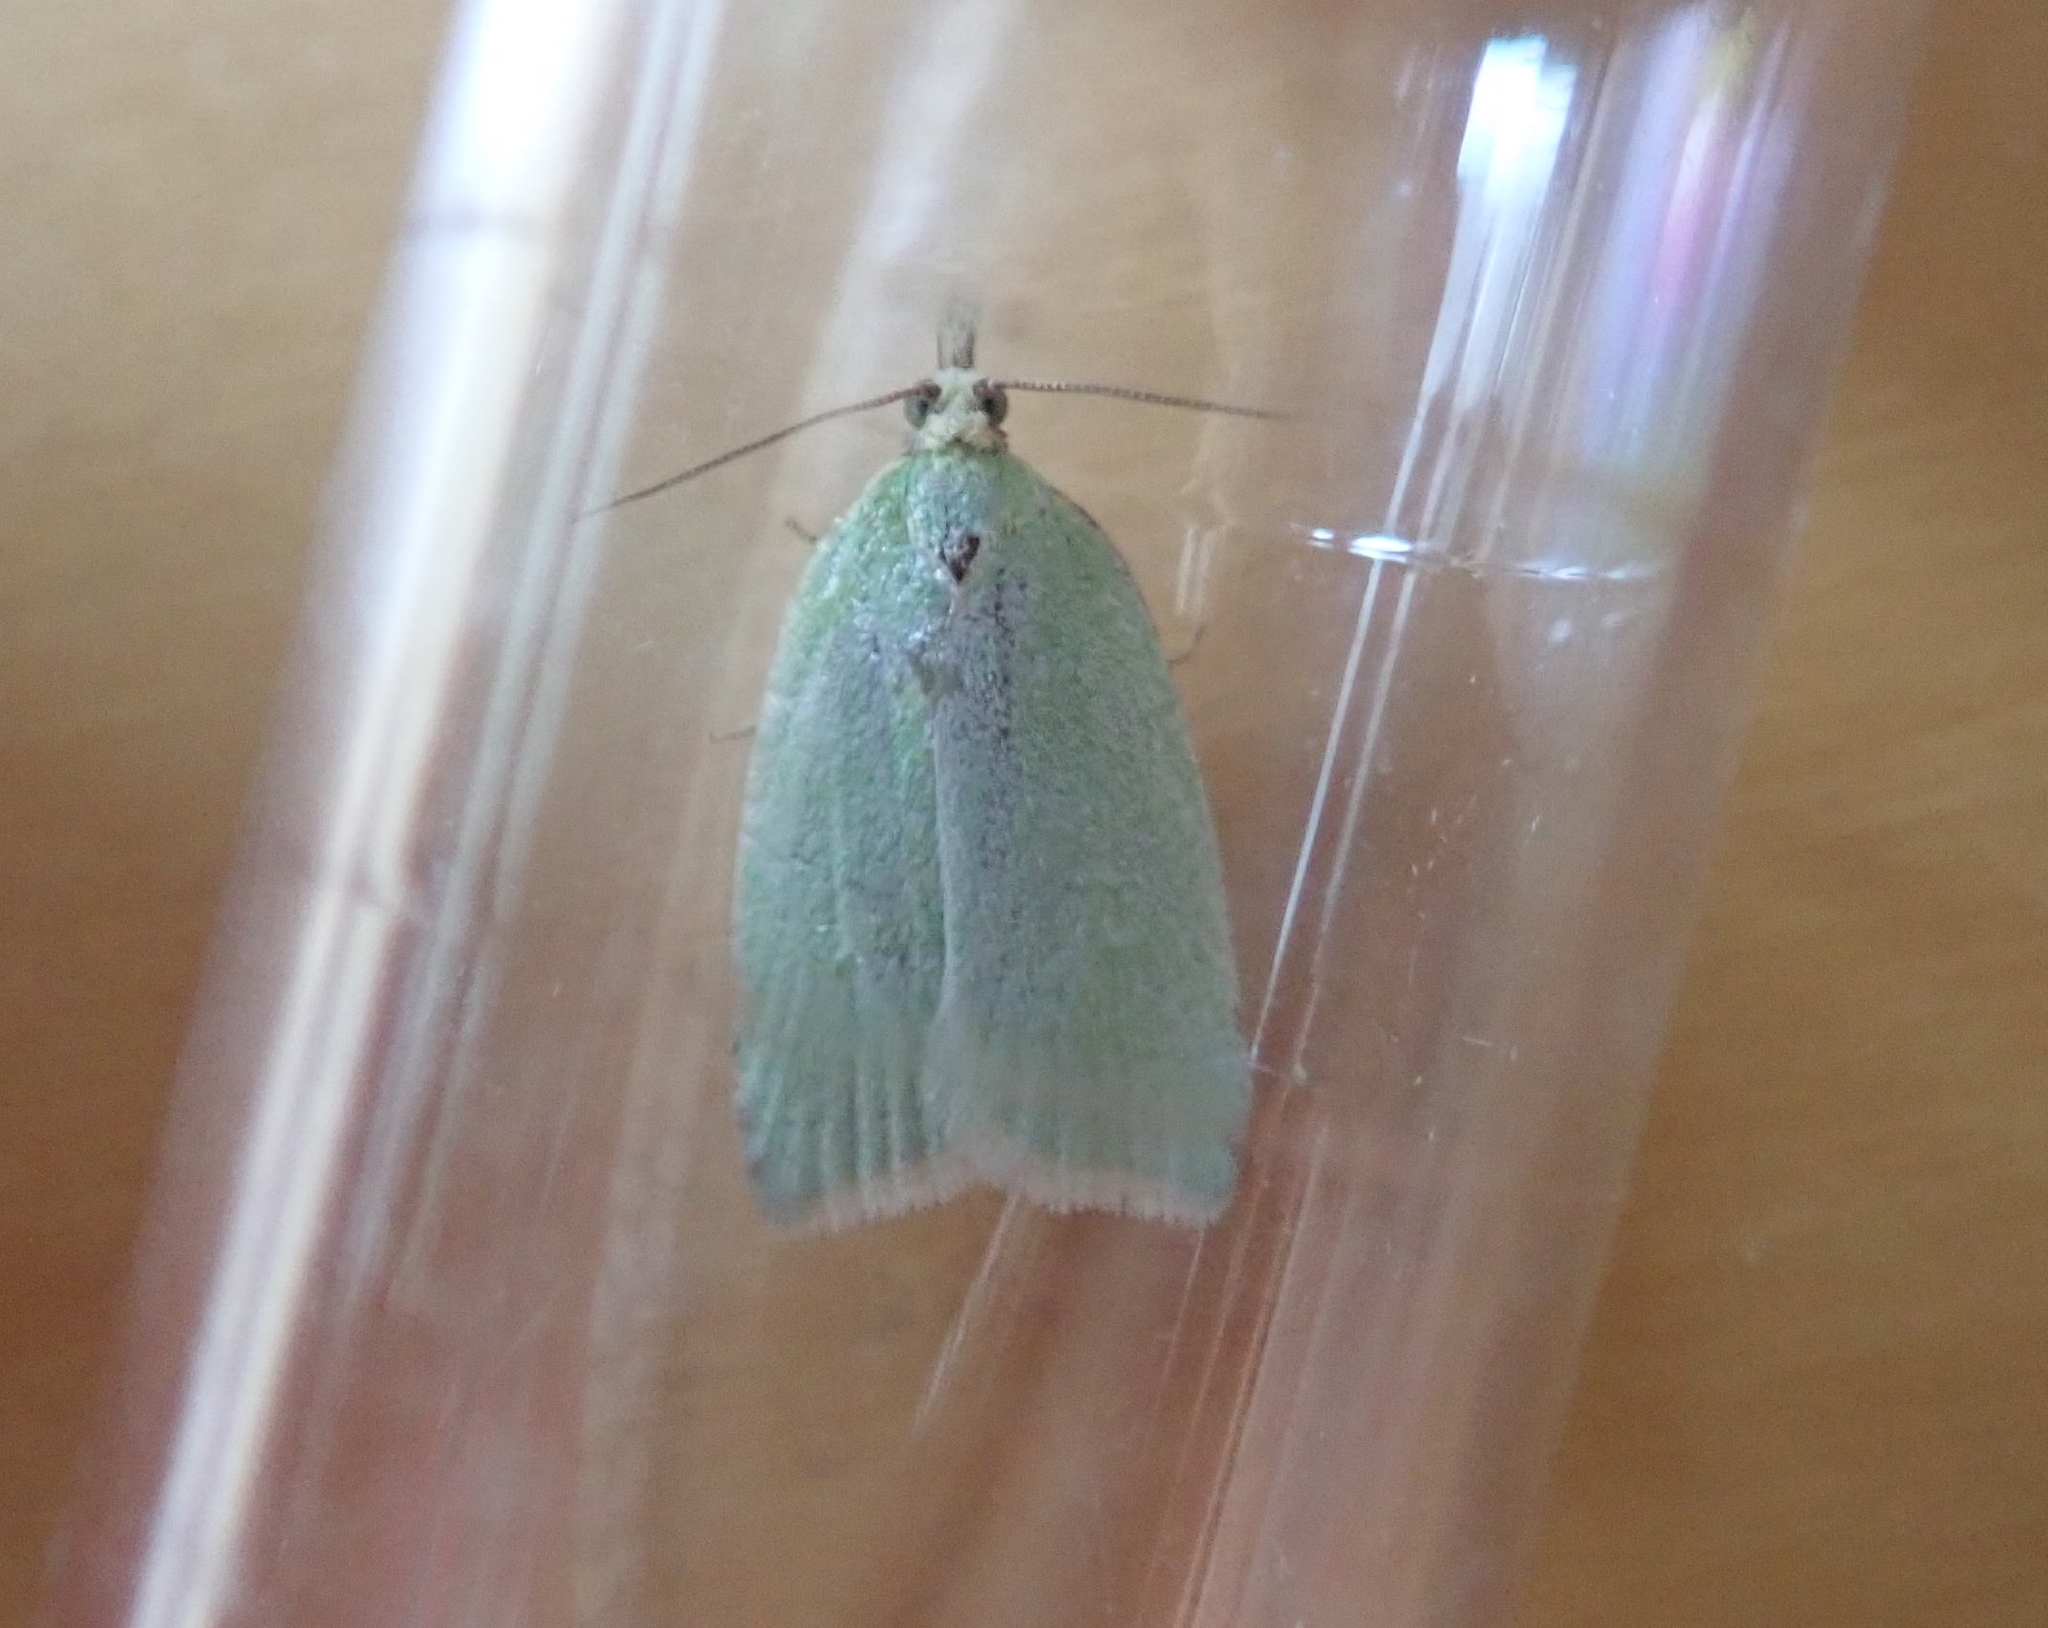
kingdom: Animalia
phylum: Arthropoda
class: Insecta
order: Lepidoptera
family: Tortricidae
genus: Tortrix
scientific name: Tortrix viridana
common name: Green oak tortrix
